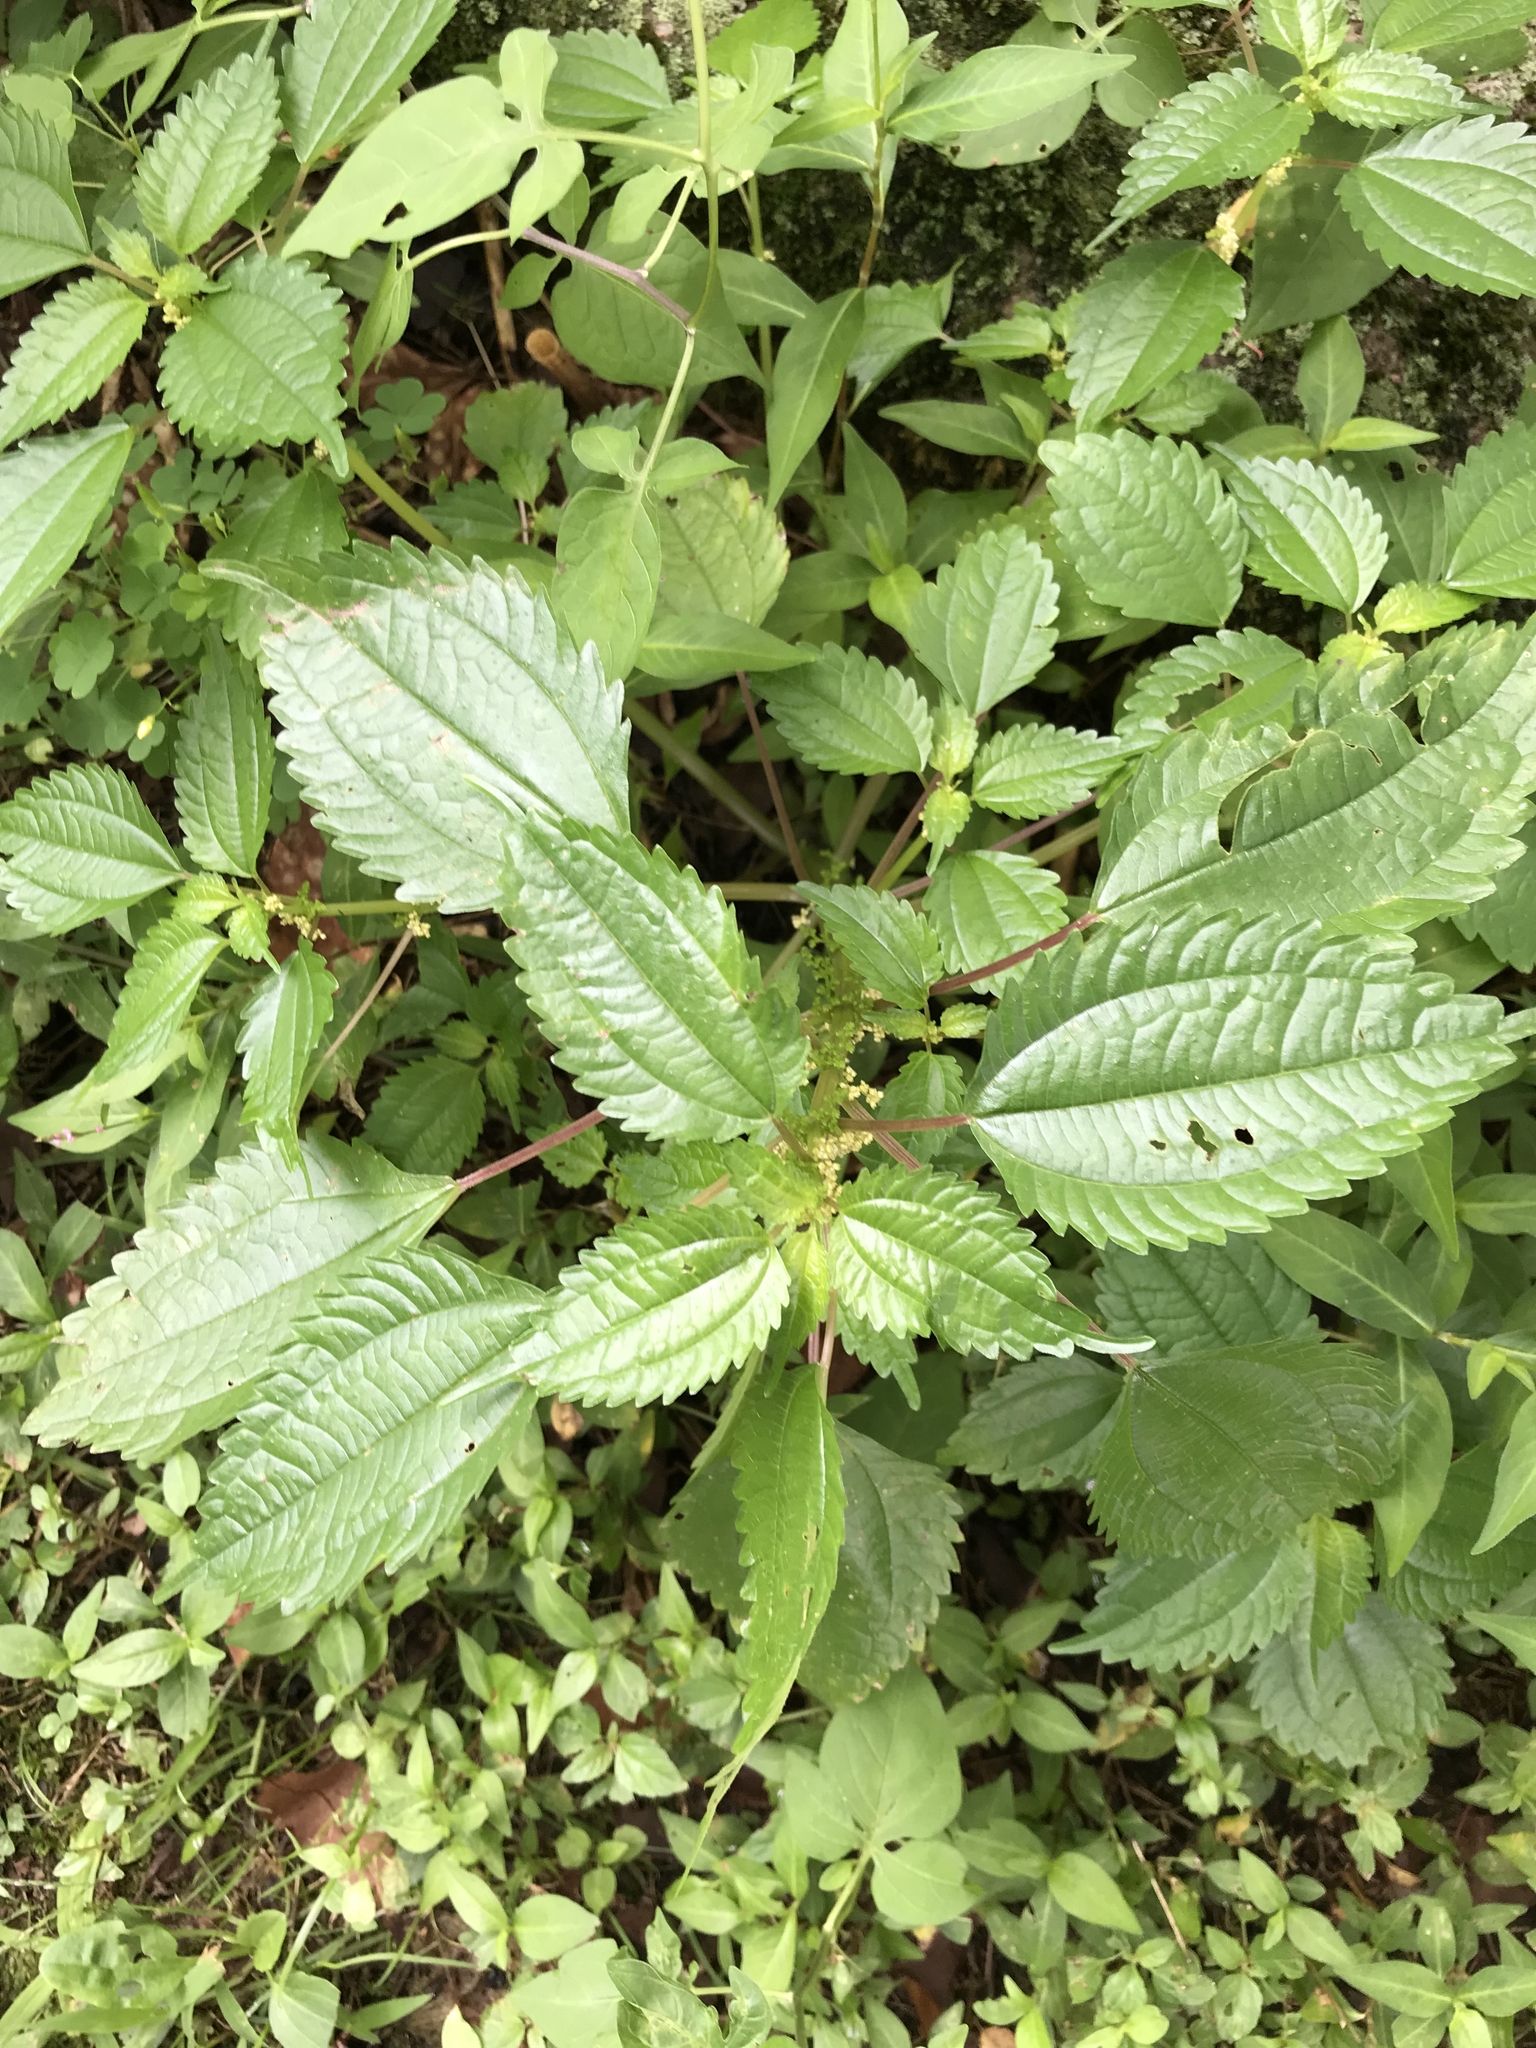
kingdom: Plantae
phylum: Tracheophyta
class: Magnoliopsida
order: Rosales
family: Urticaceae
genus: Pilea
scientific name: Pilea pumila
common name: Clearweed
